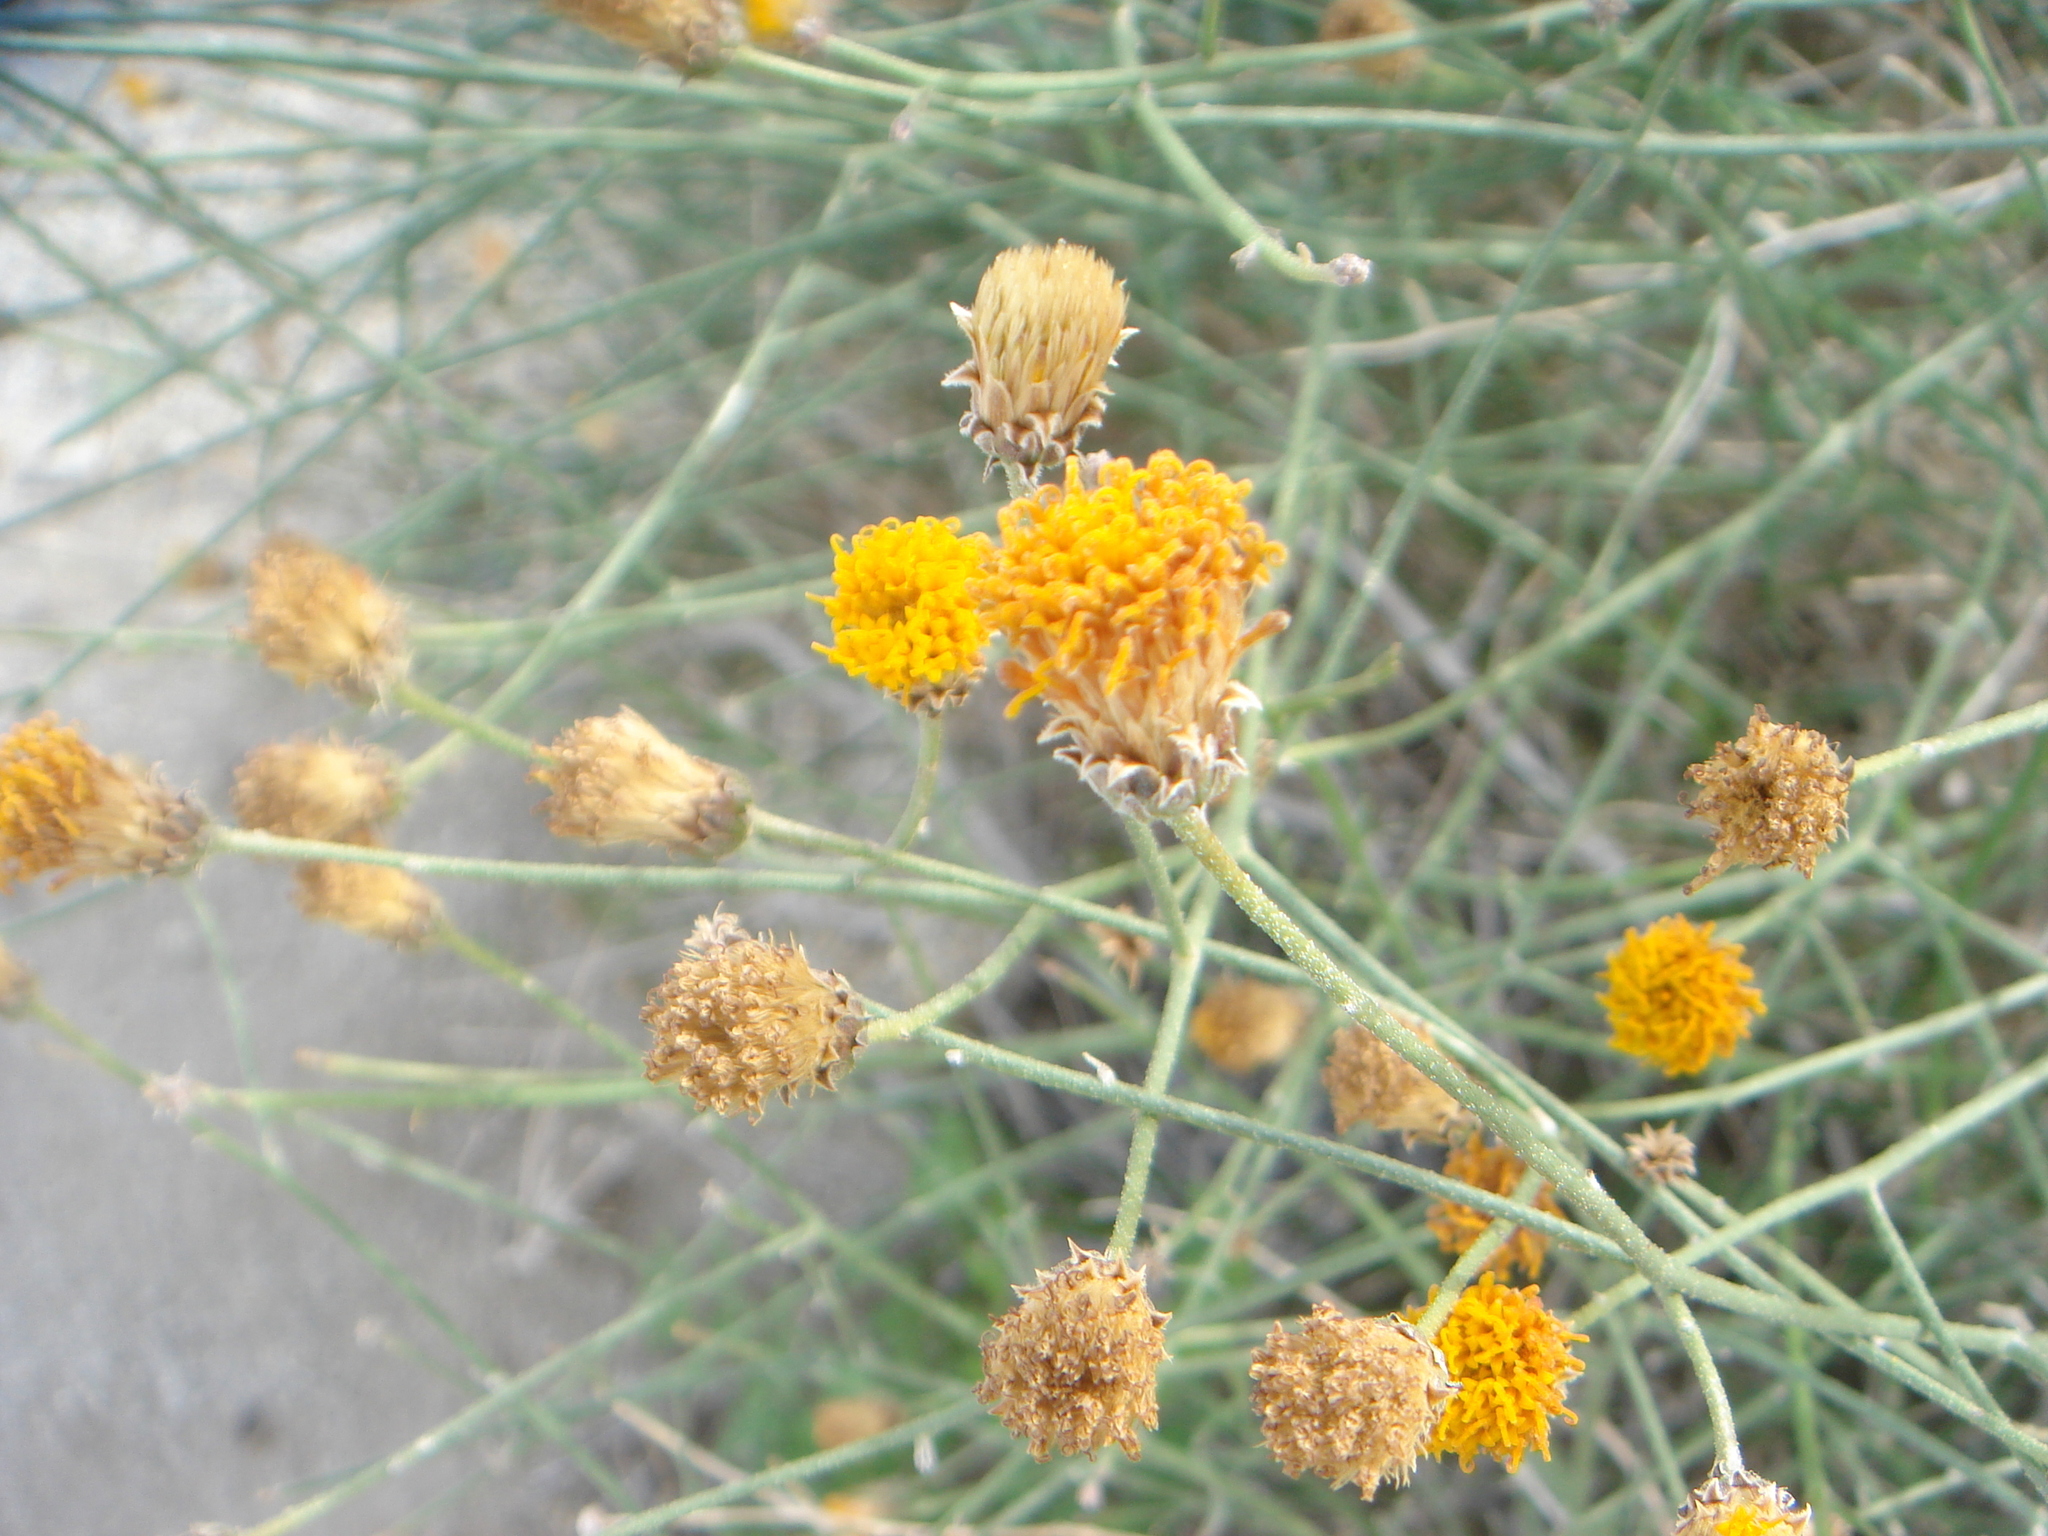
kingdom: Plantae
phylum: Tracheophyta
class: Magnoliopsida
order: Asterales
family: Asteraceae
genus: Bebbia
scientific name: Bebbia juncea
